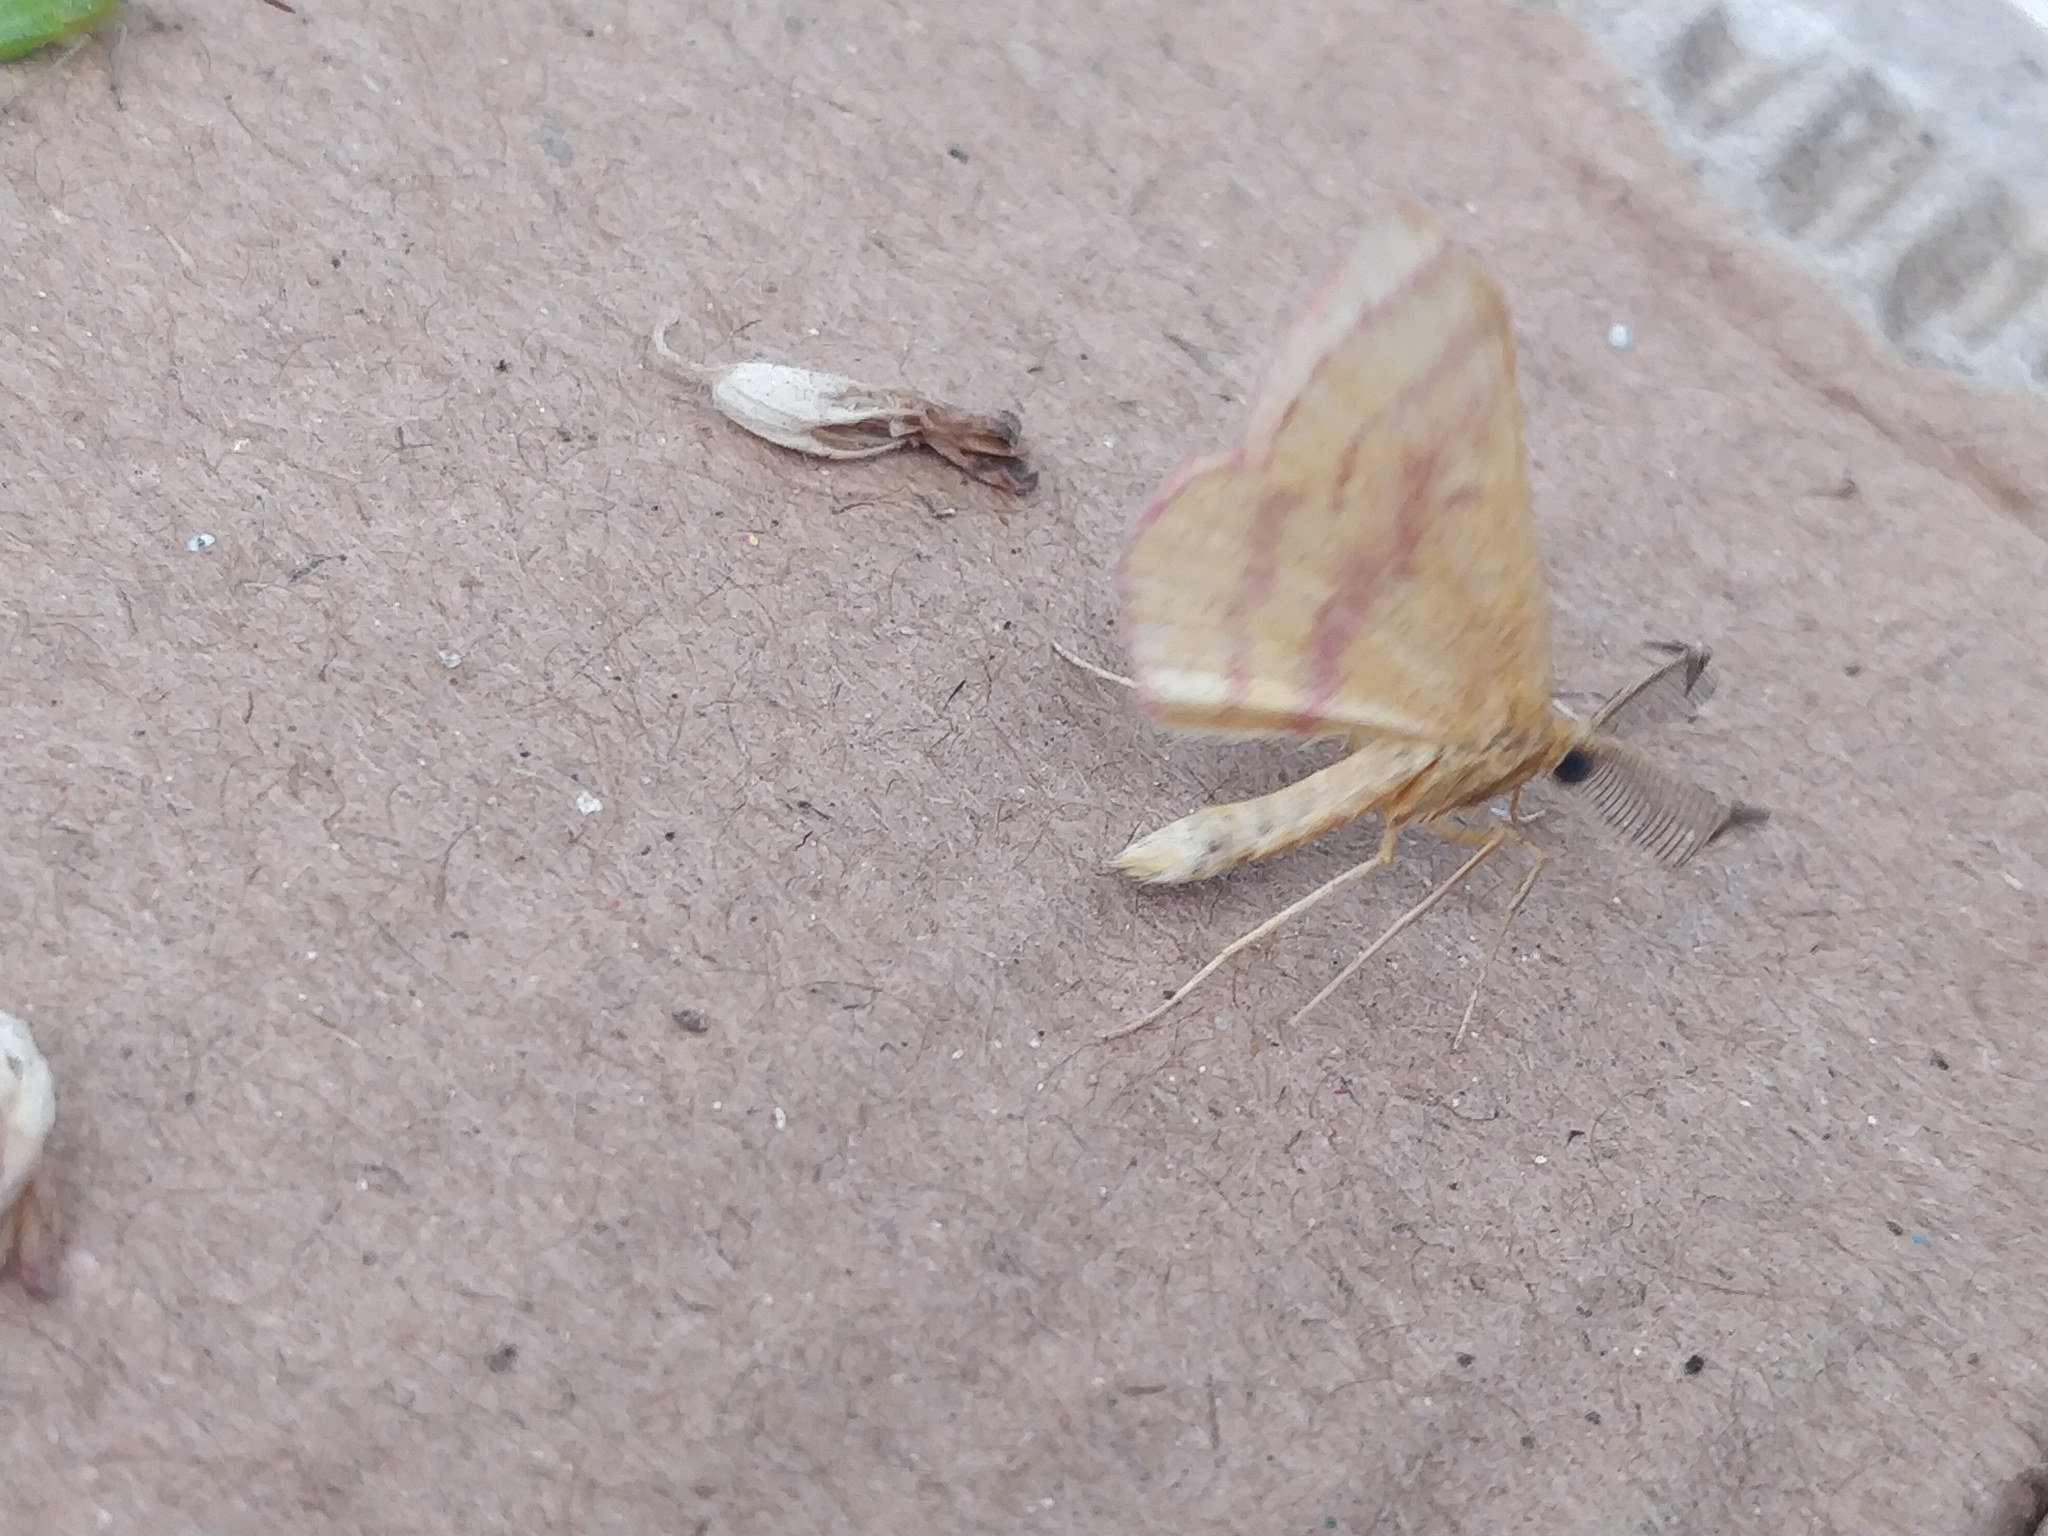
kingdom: Animalia
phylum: Arthropoda
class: Insecta
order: Lepidoptera
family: Geometridae
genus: Haematopis
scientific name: Haematopis grataria
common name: Chickweed geometer
